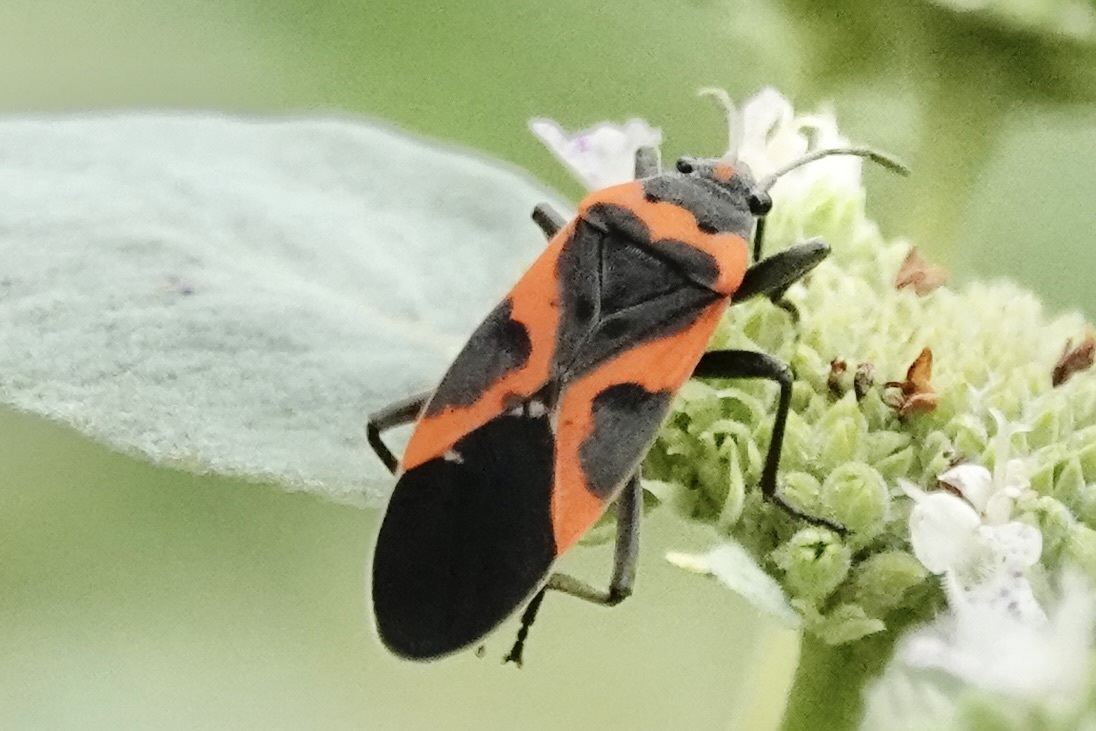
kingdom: Animalia
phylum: Arthropoda
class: Insecta
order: Hemiptera
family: Lygaeidae
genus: Lygaeus
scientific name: Lygaeus kalmii
